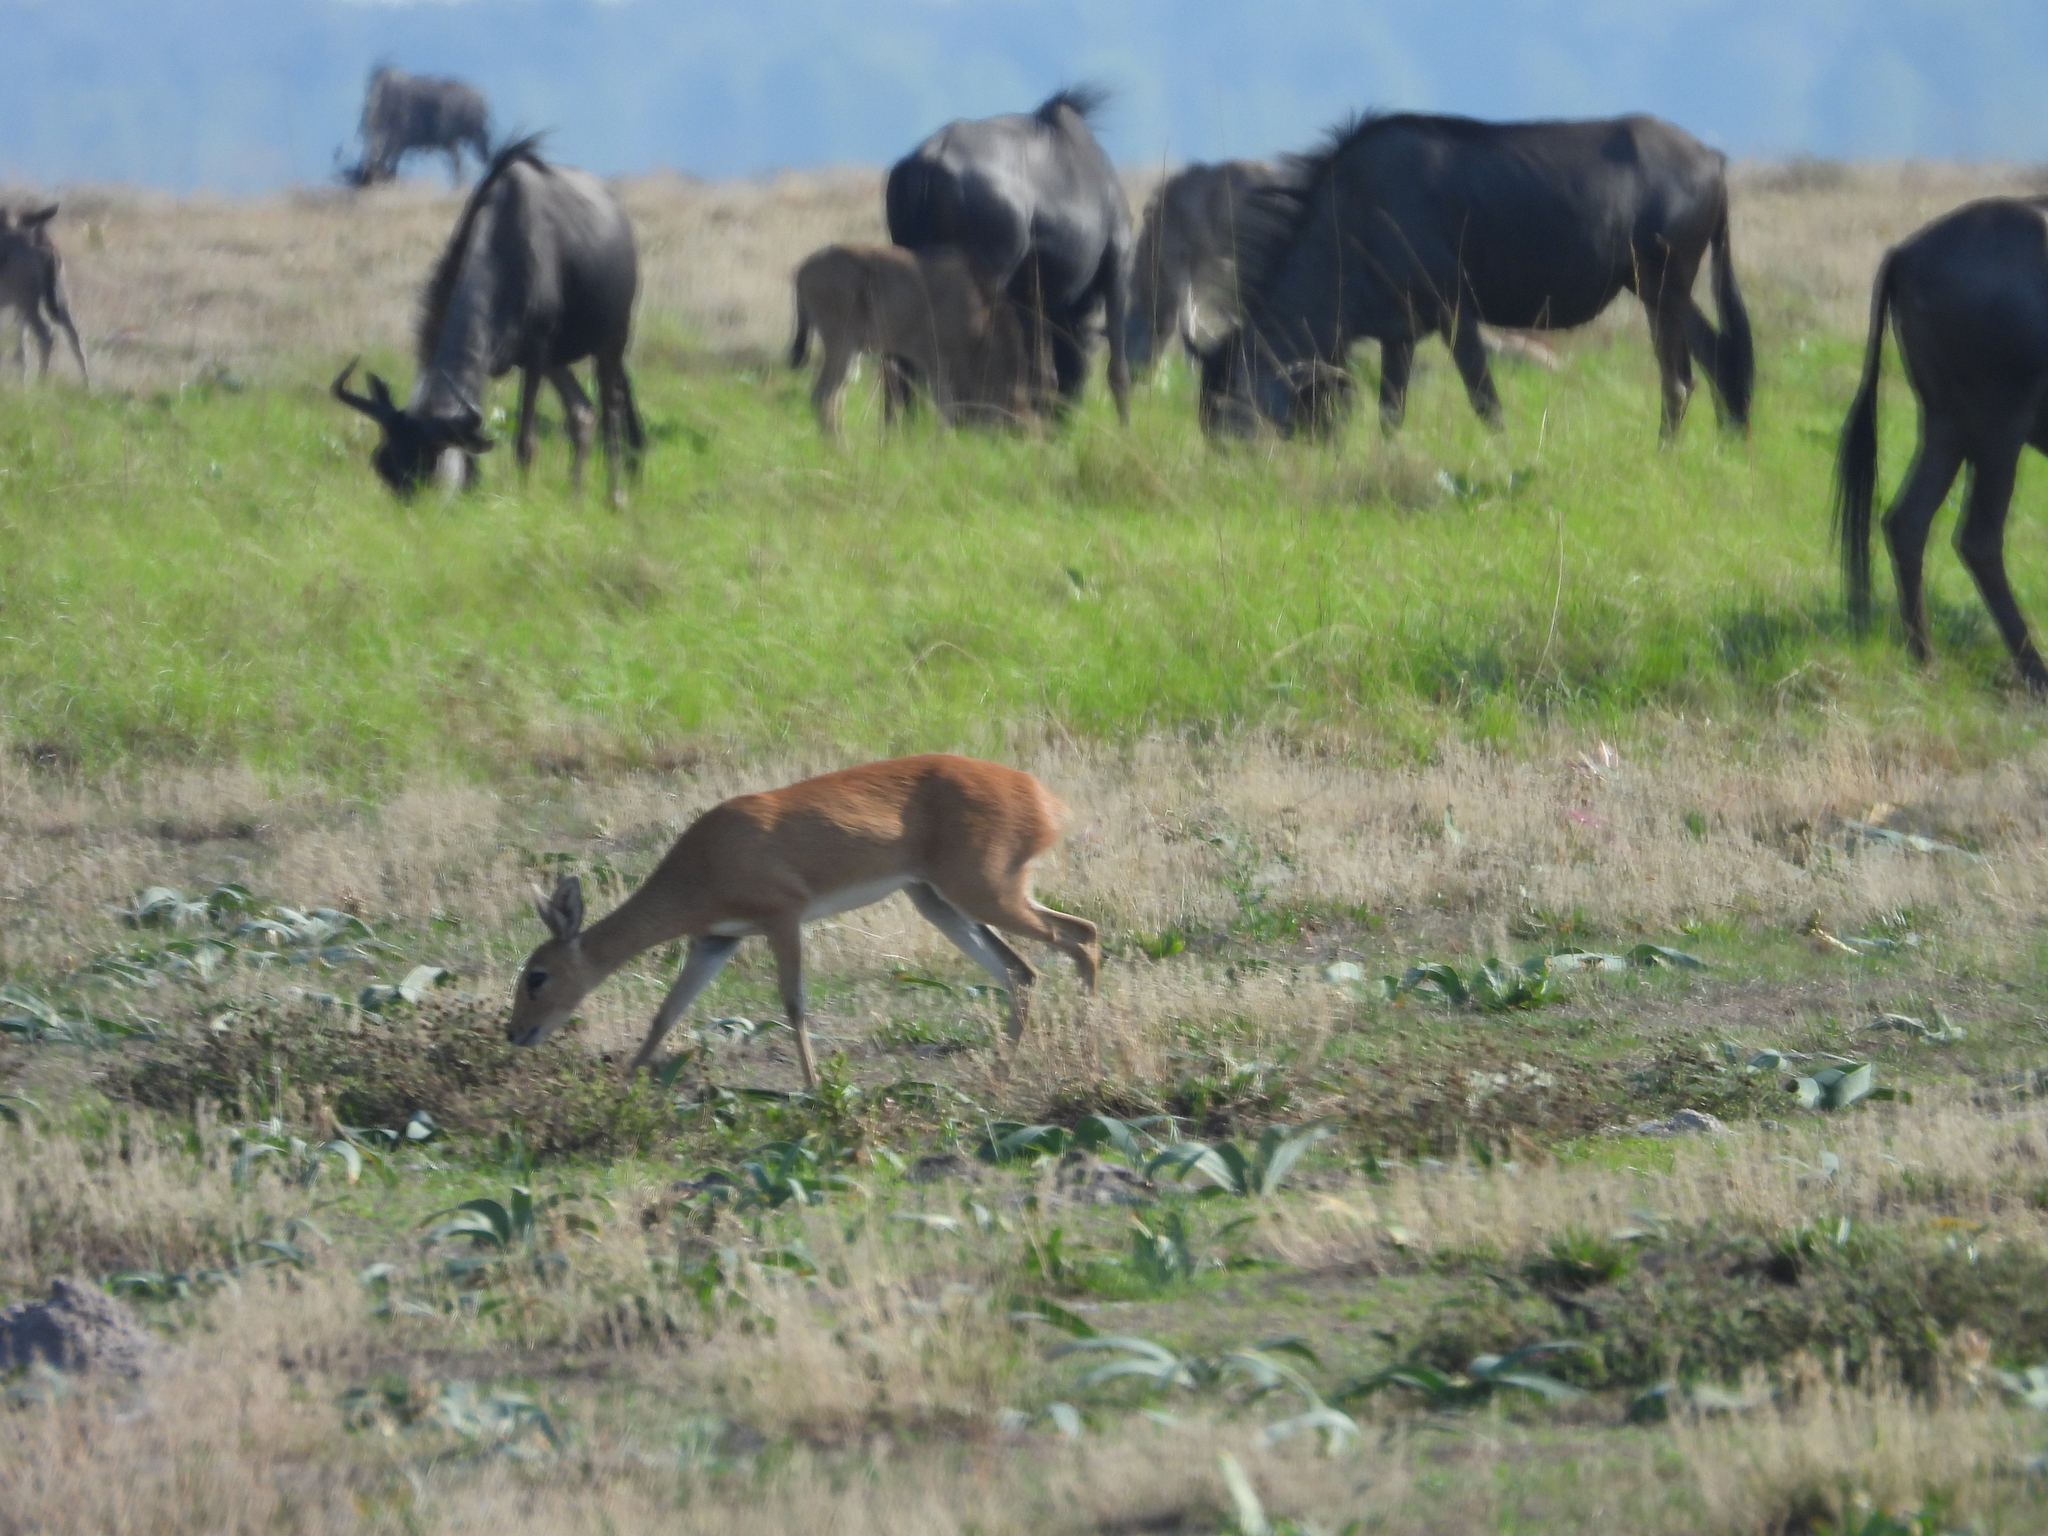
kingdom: Animalia
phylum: Chordata
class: Mammalia
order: Artiodactyla
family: Bovidae
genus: Raphicerus
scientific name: Raphicerus campestris
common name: Steenbok
